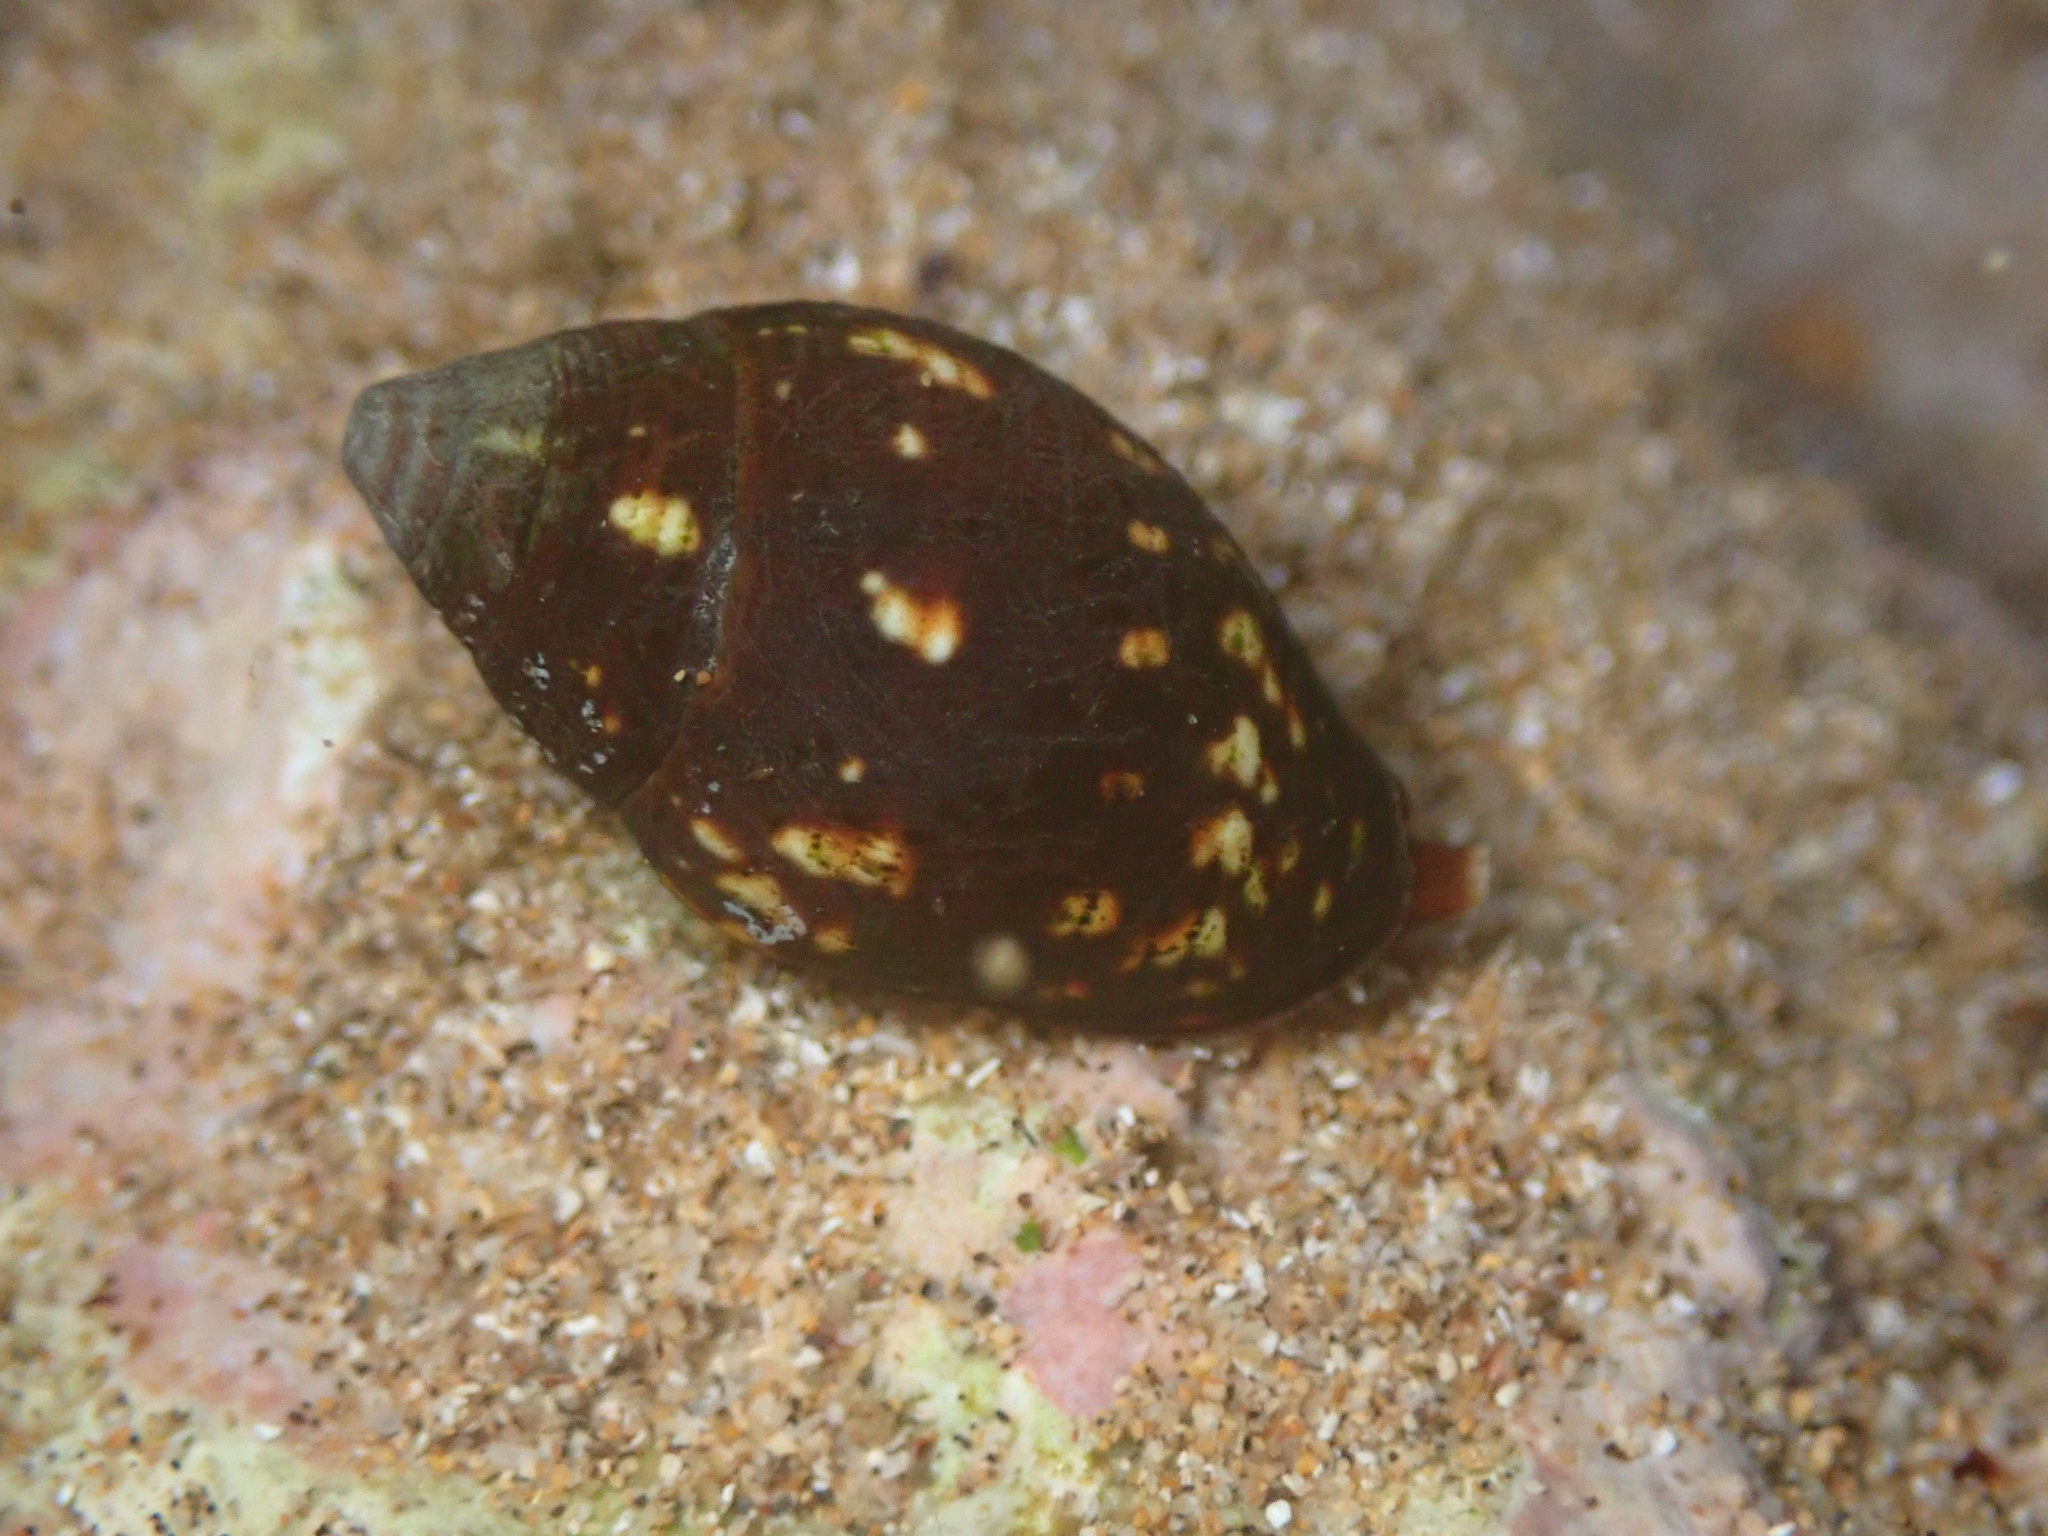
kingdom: Animalia
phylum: Mollusca
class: Gastropoda
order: Neogastropoda
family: Mitridae
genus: Strigatella
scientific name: Strigatella litterata
